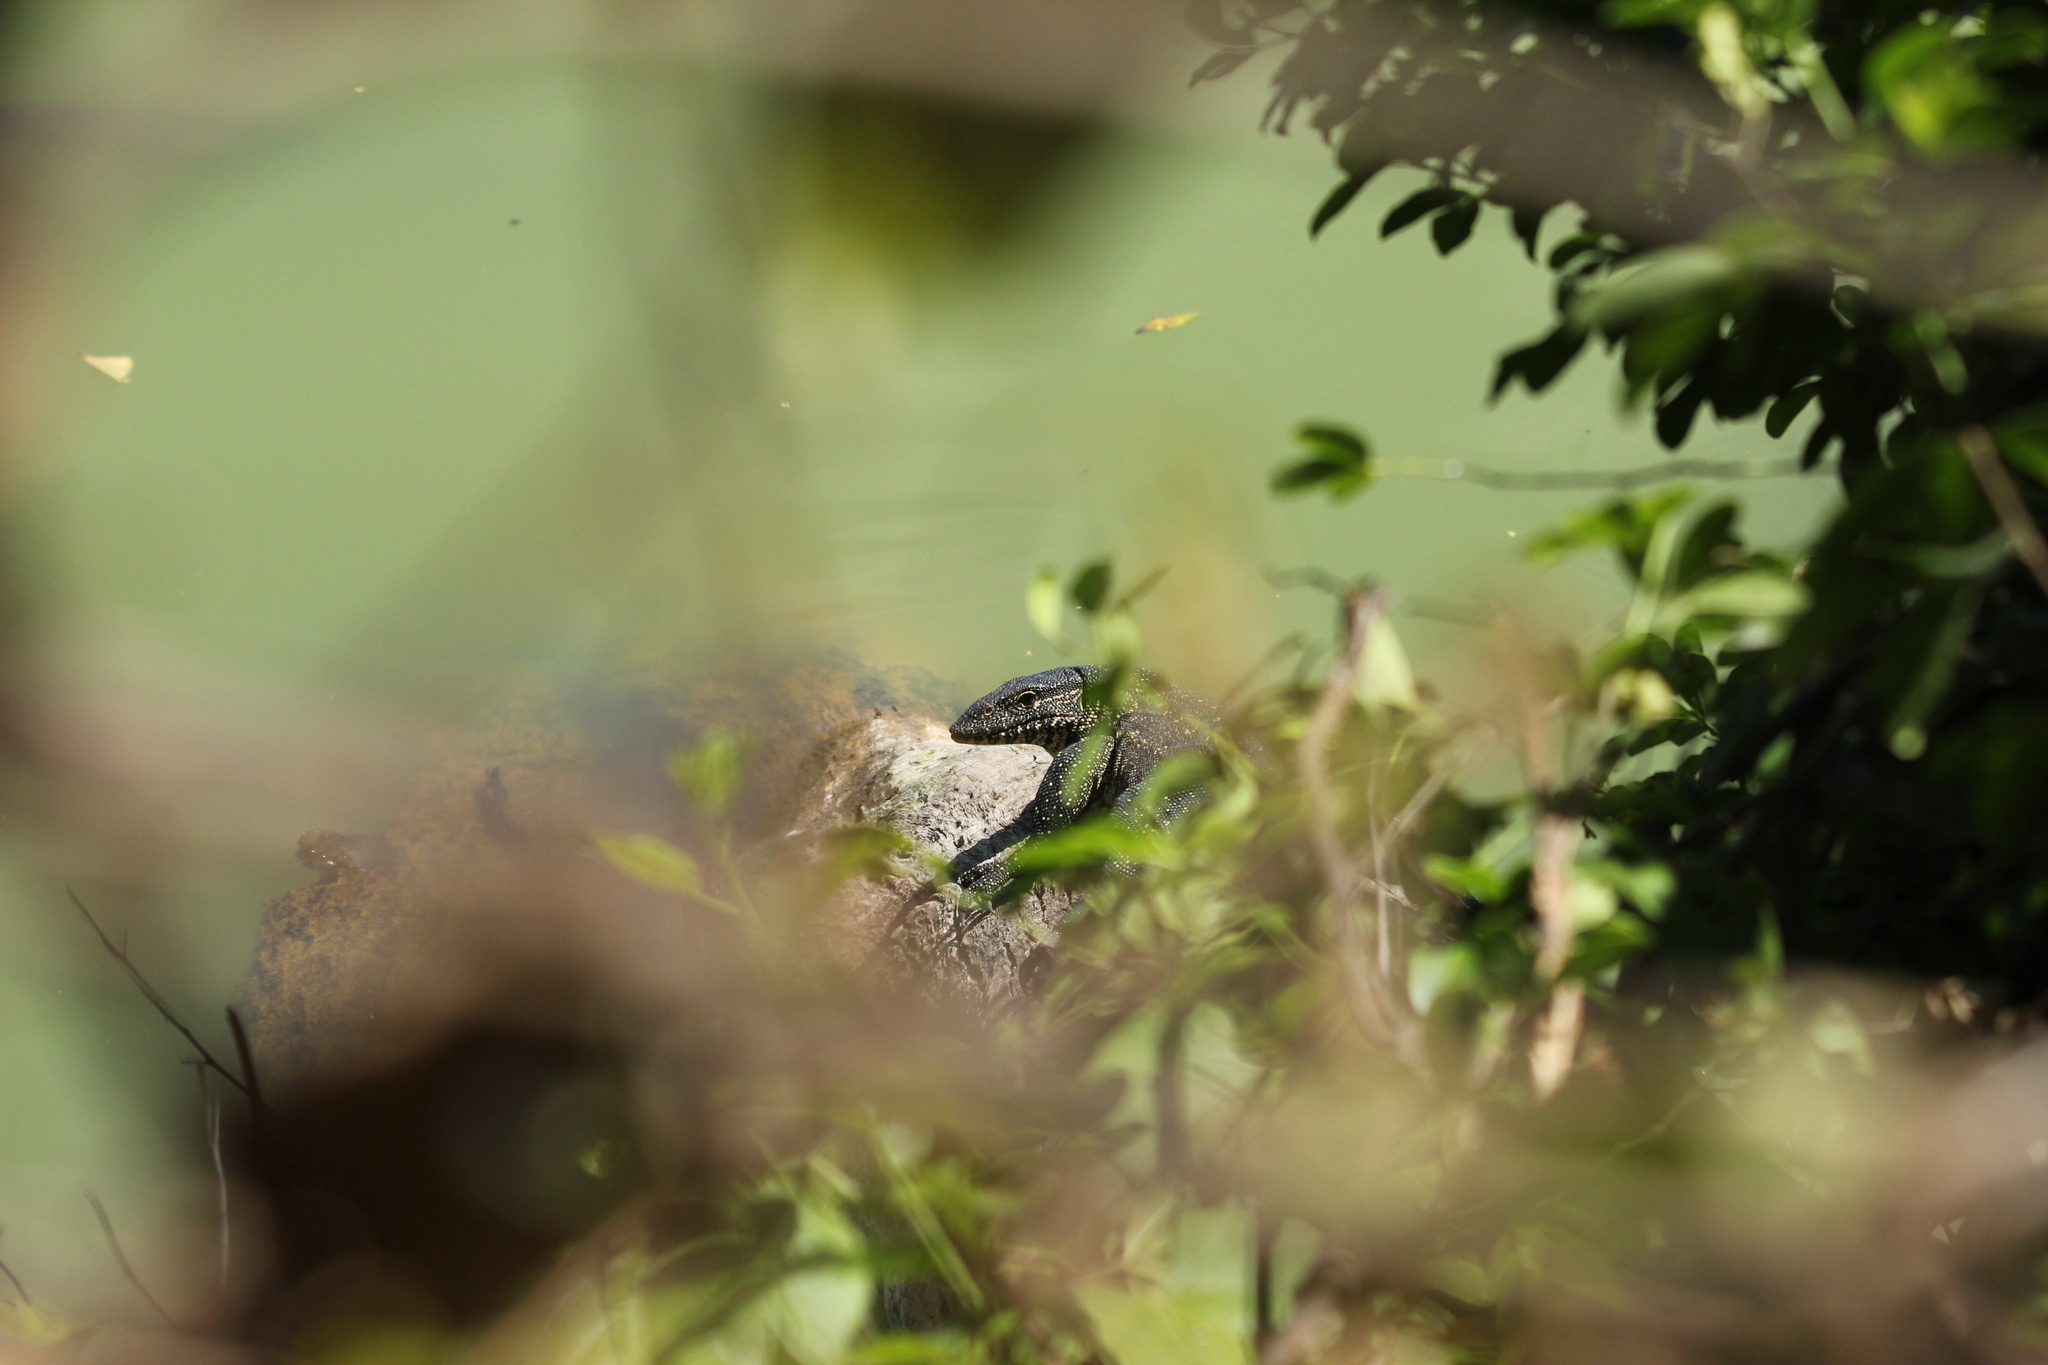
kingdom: Animalia
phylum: Chordata
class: Squamata
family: Varanidae
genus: Varanus
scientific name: Varanus niloticus
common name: Nile monitor
